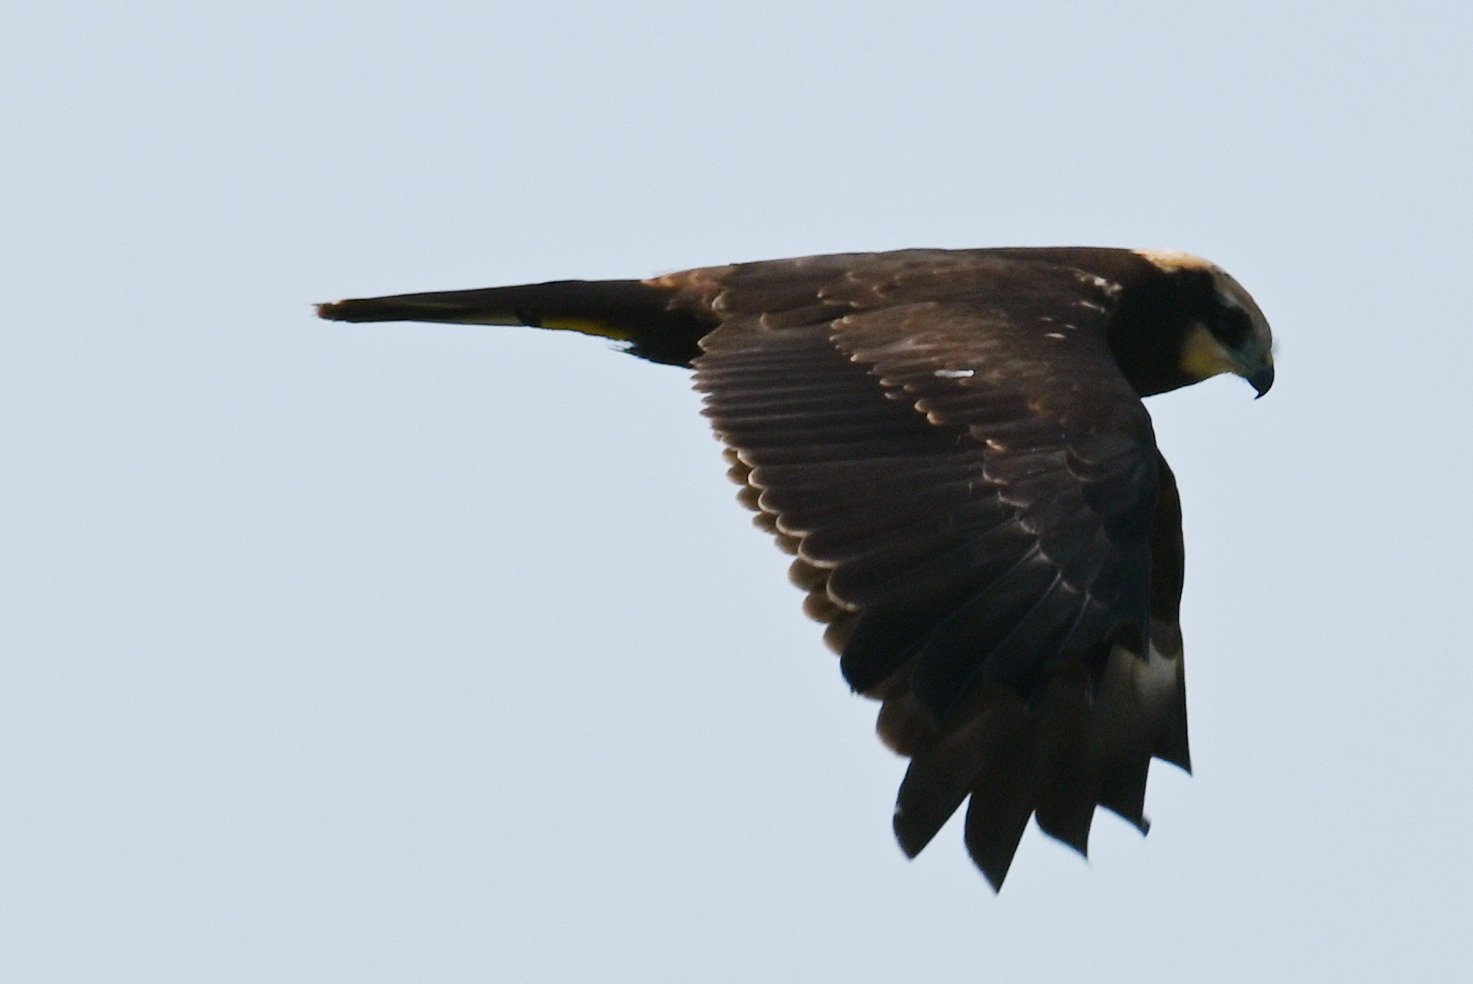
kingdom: Animalia
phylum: Chordata
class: Aves
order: Accipitriformes
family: Accipitridae
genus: Circus
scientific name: Circus aeruginosus
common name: Western marsh harrier
